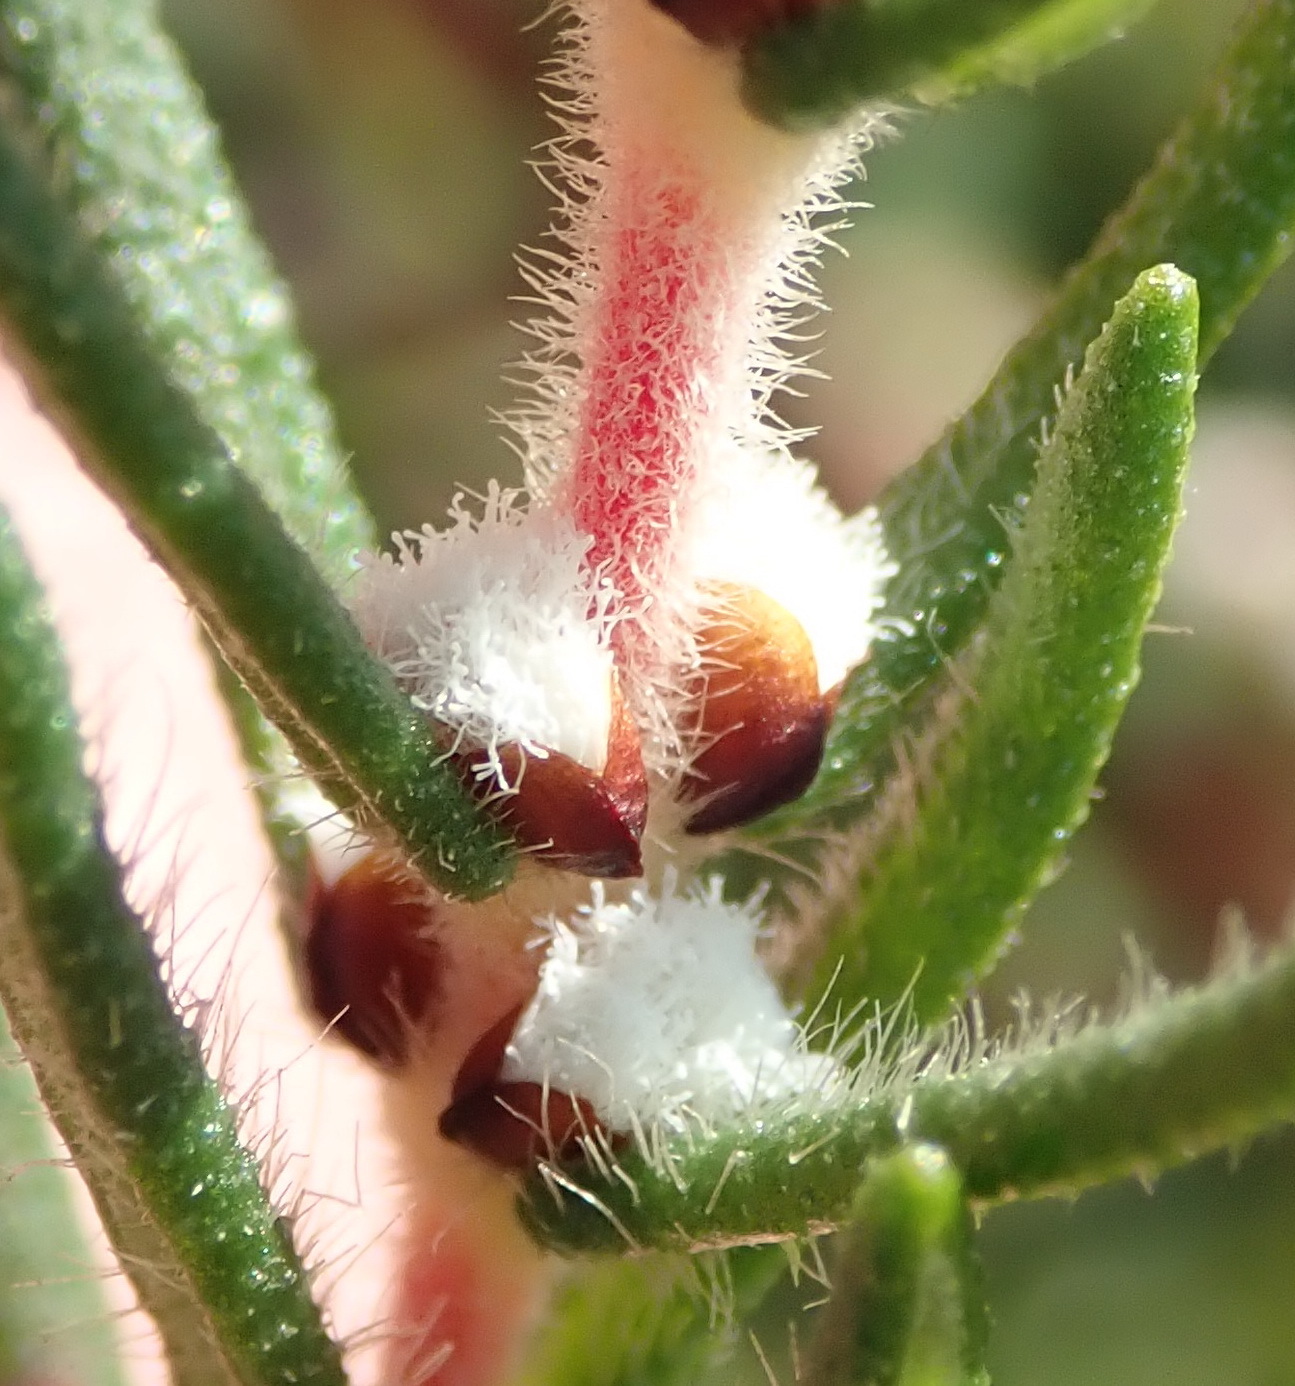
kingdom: Plantae
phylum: Tracheophyta
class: Magnoliopsida
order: Cornales
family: Grubbiaceae
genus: Grubbia
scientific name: Grubbia rosmarinifolia
